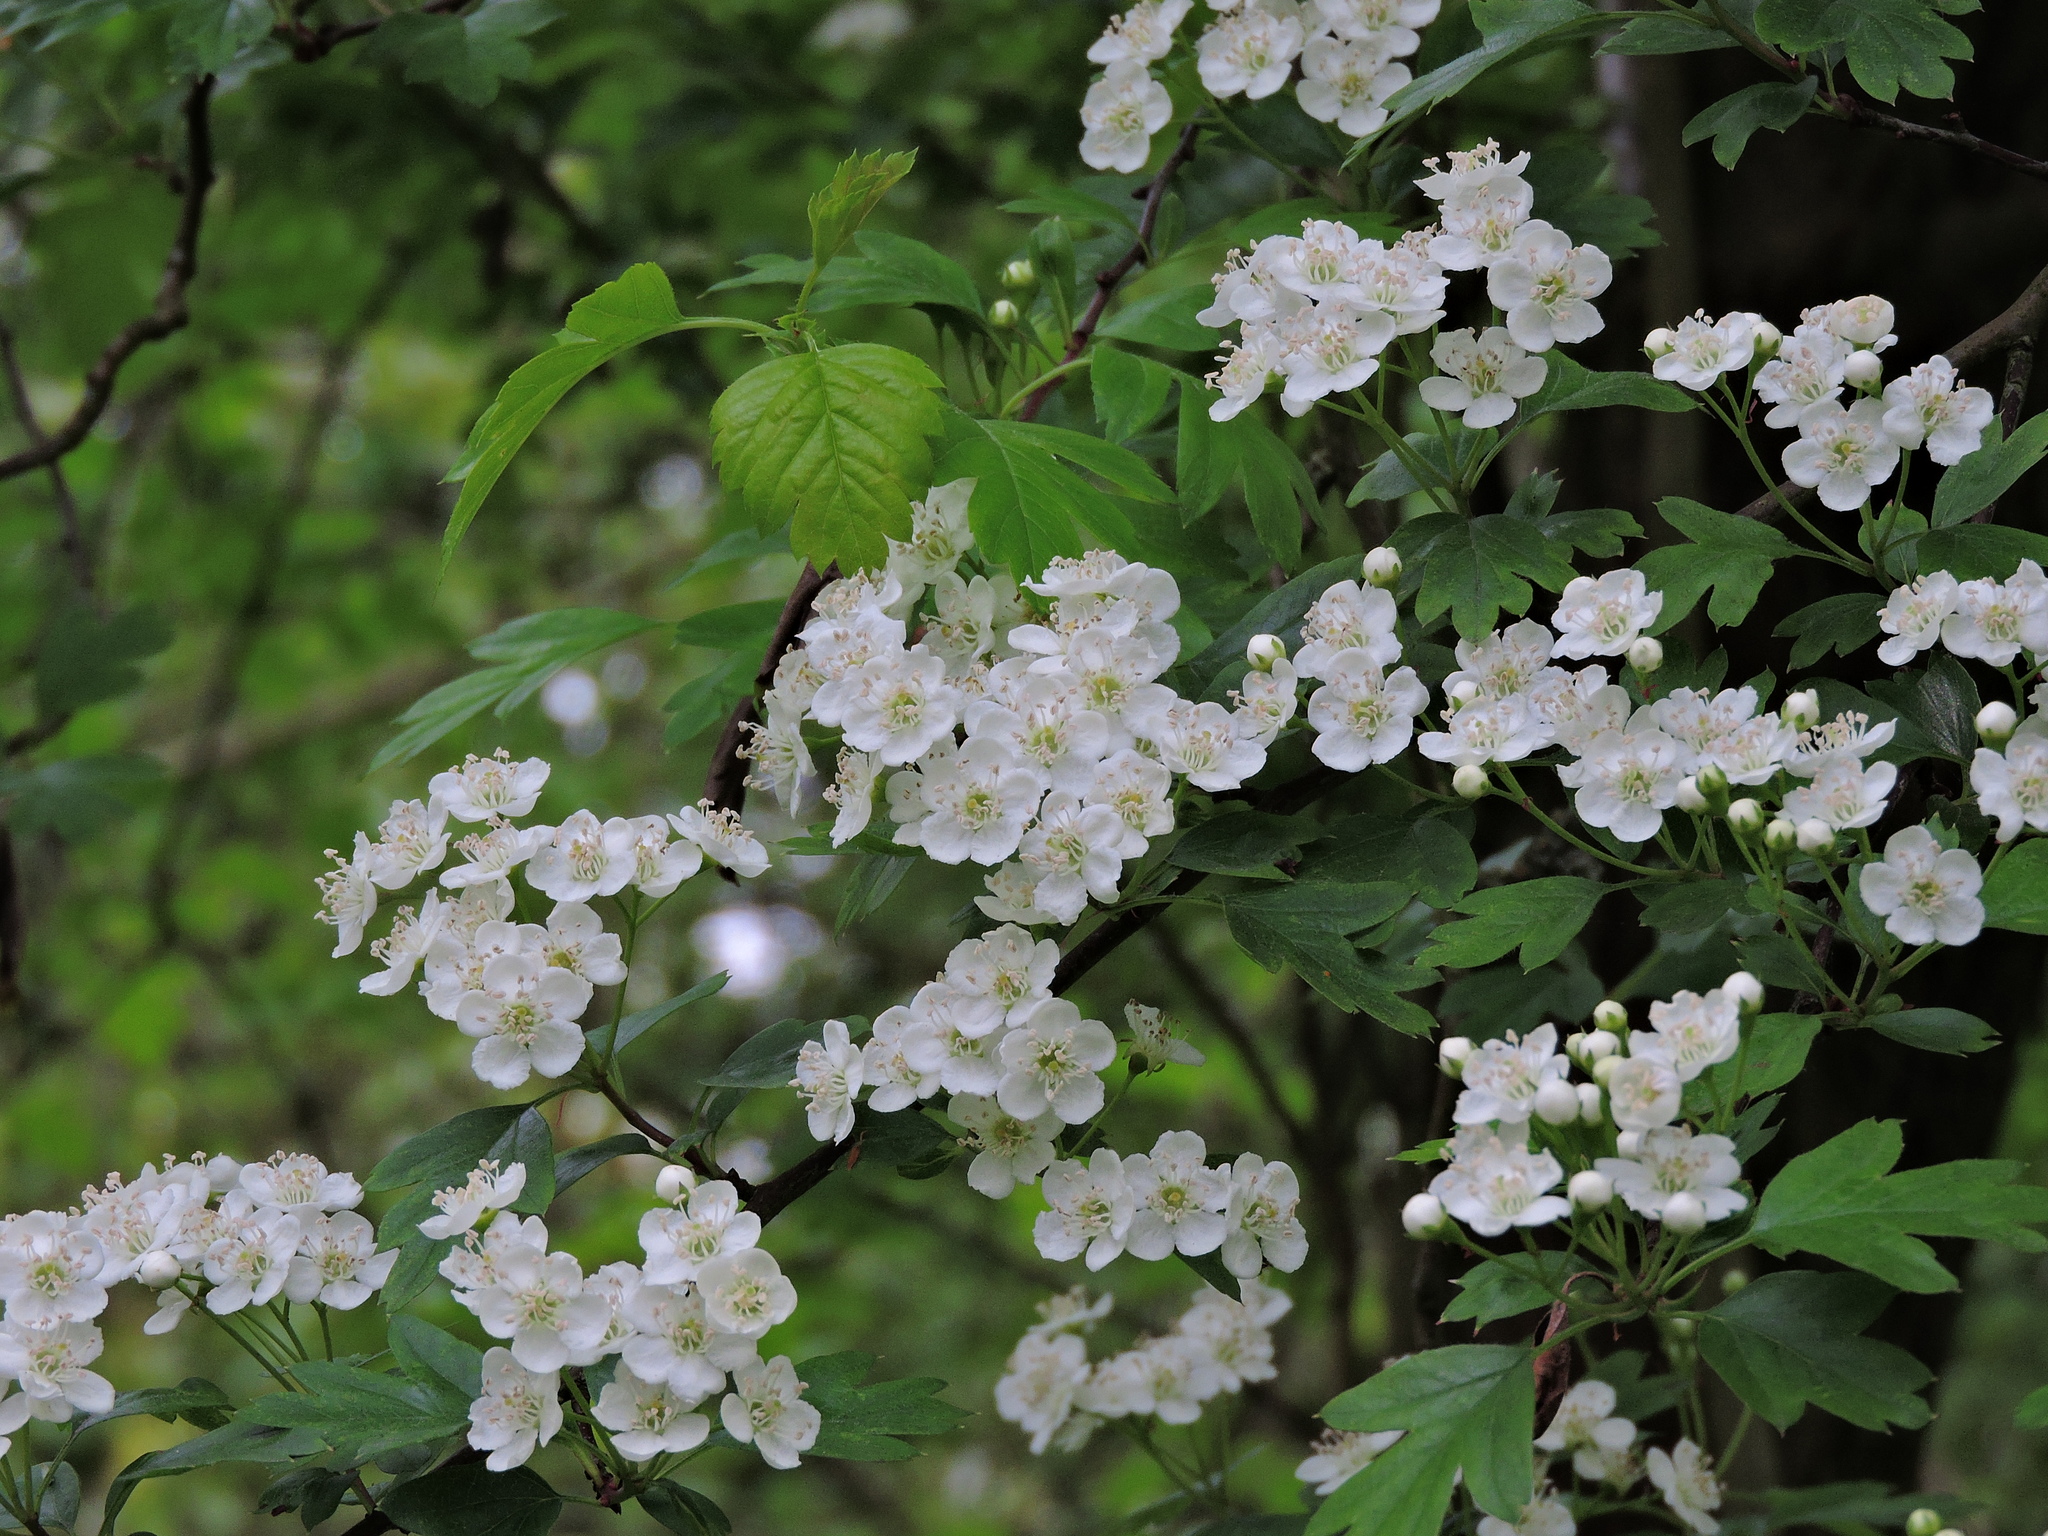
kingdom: Plantae
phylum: Tracheophyta
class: Magnoliopsida
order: Rosales
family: Rosaceae
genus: Crataegus
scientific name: Crataegus monogyna
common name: Hawthorn
